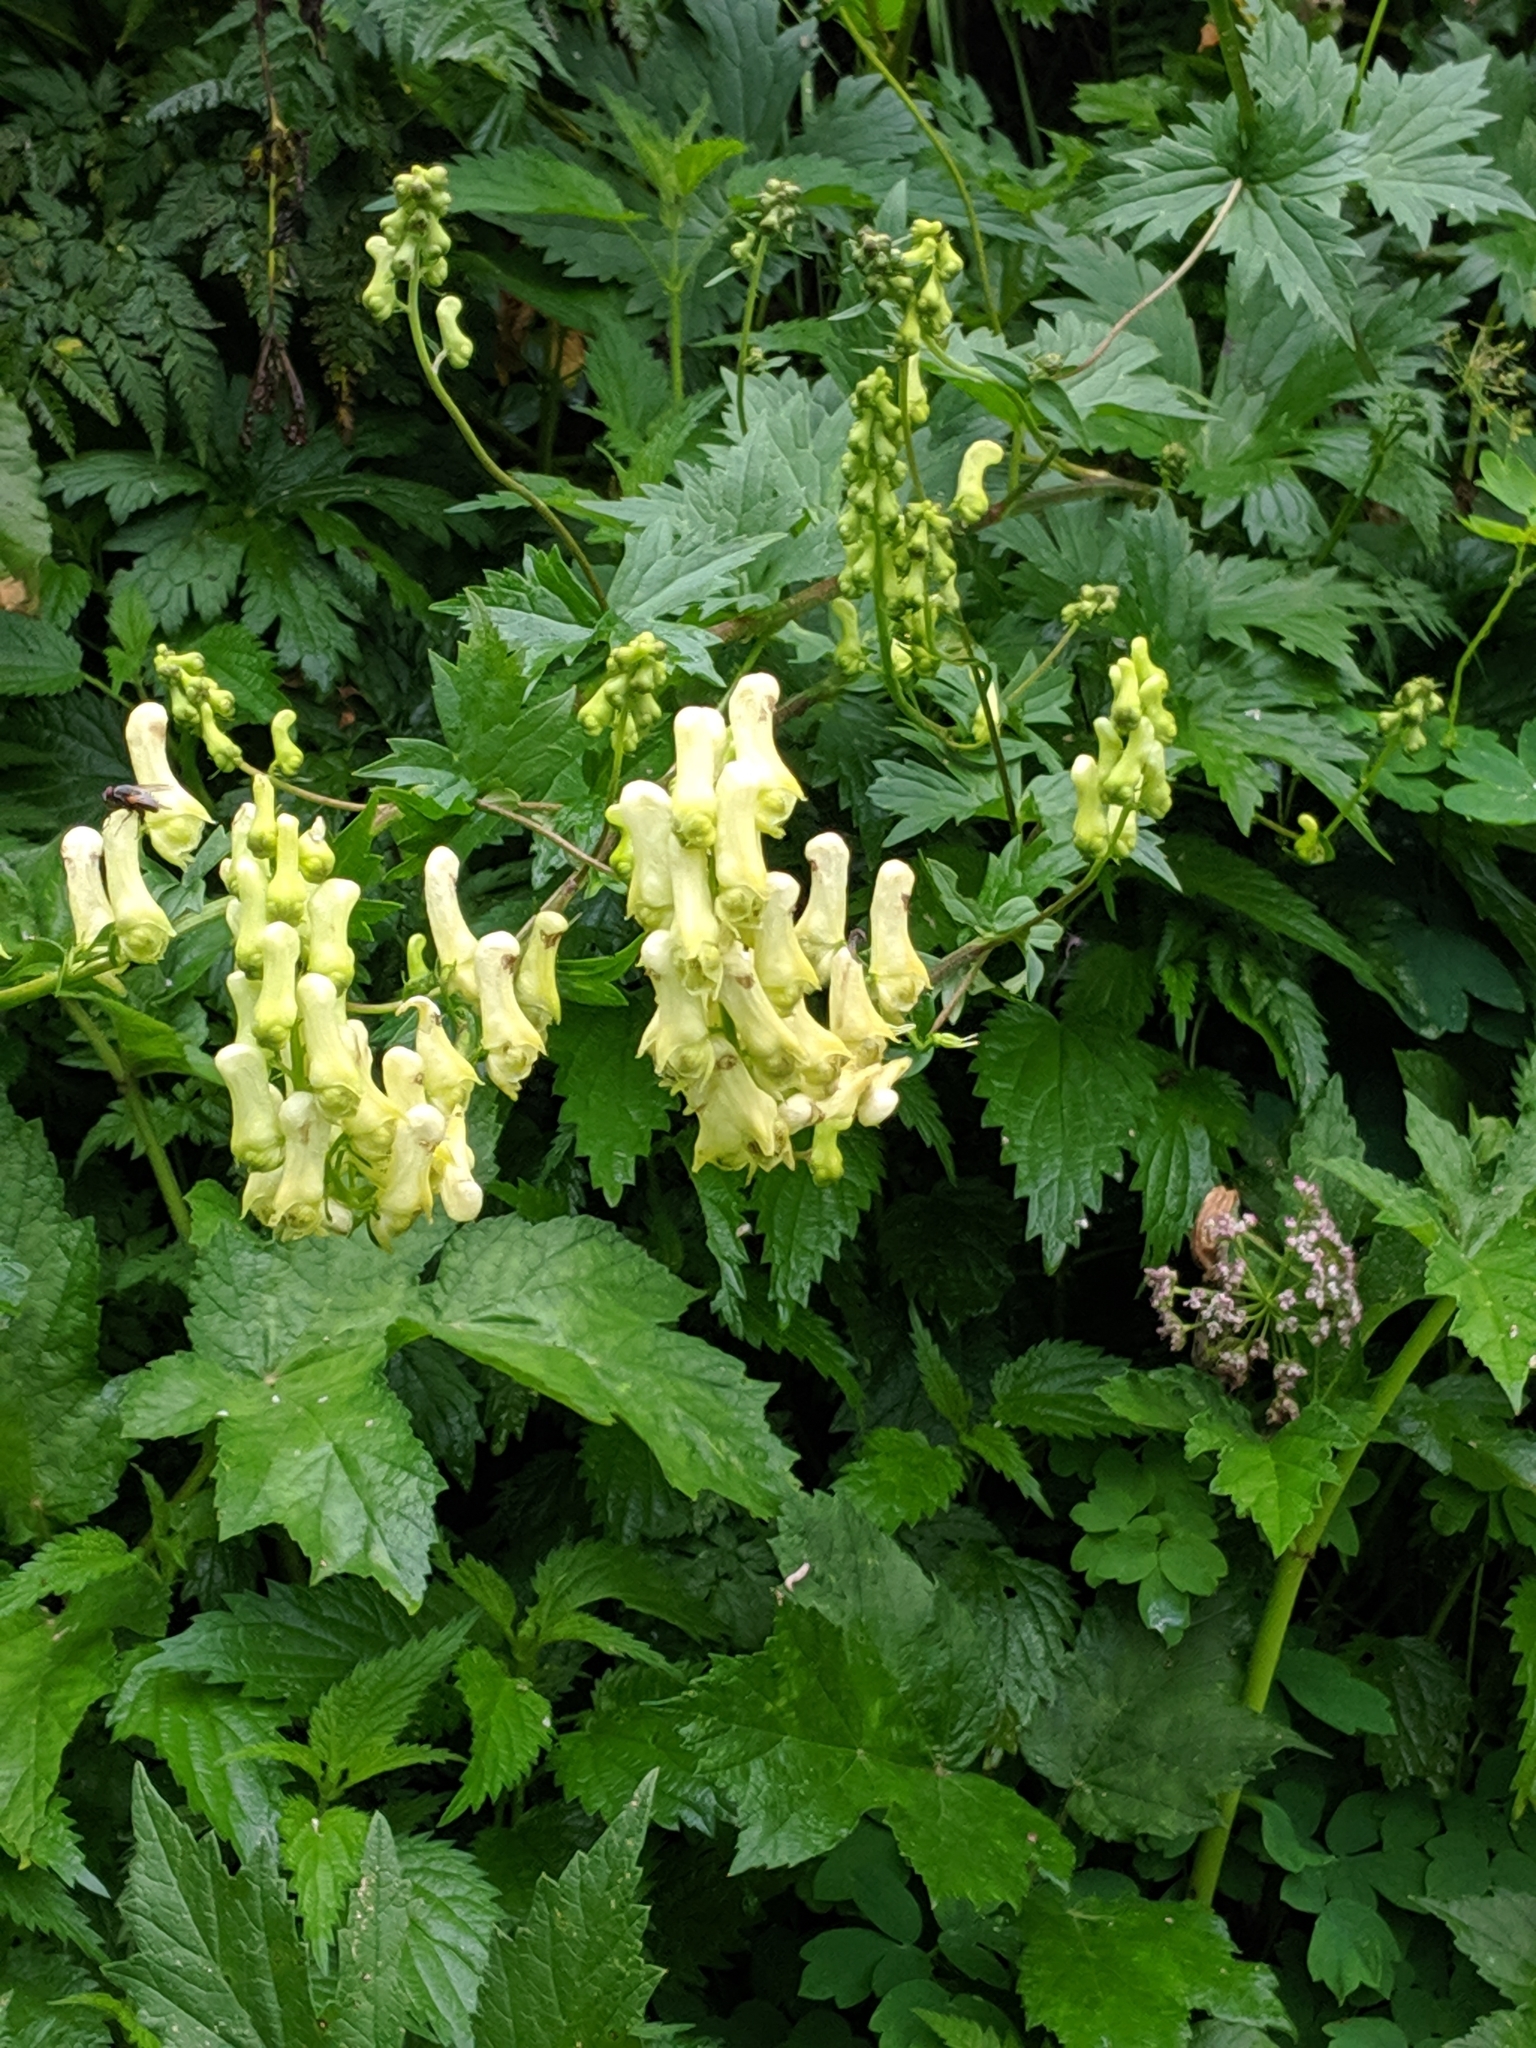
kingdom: Plantae
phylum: Tracheophyta
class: Magnoliopsida
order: Ranunculales
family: Ranunculaceae
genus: Aconitum
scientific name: Aconitum lycoctonum
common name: Wolf's-bane
